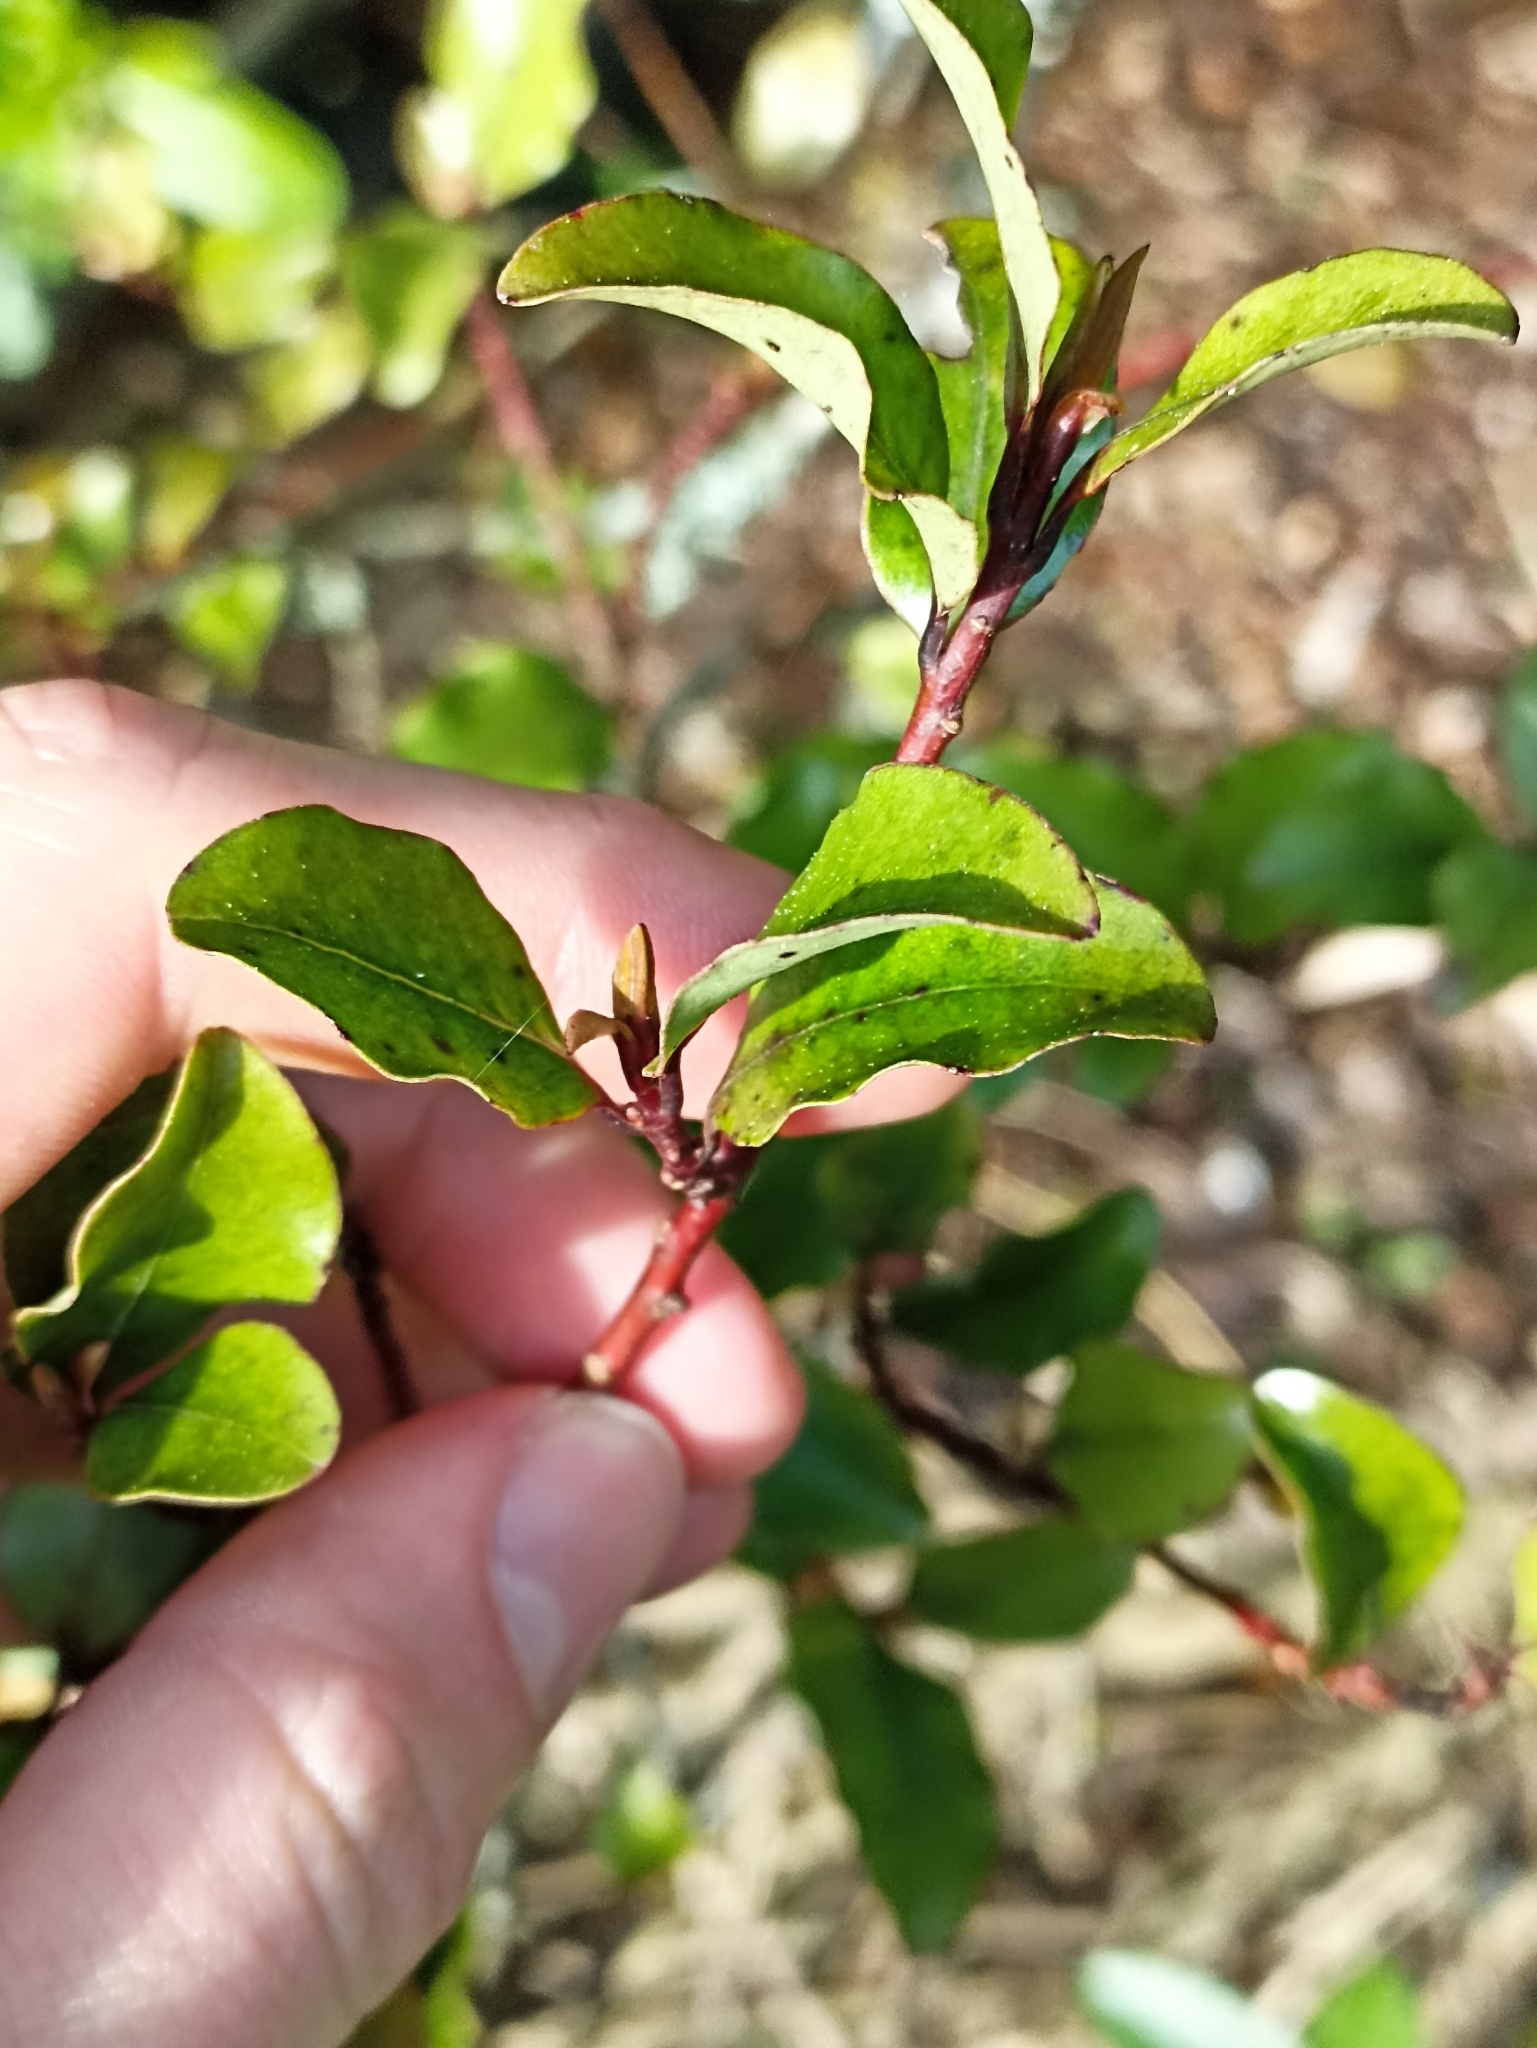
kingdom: Plantae
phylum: Tracheophyta
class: Magnoliopsida
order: Ericales
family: Primulaceae
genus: Myrsine
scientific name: Myrsine australis
